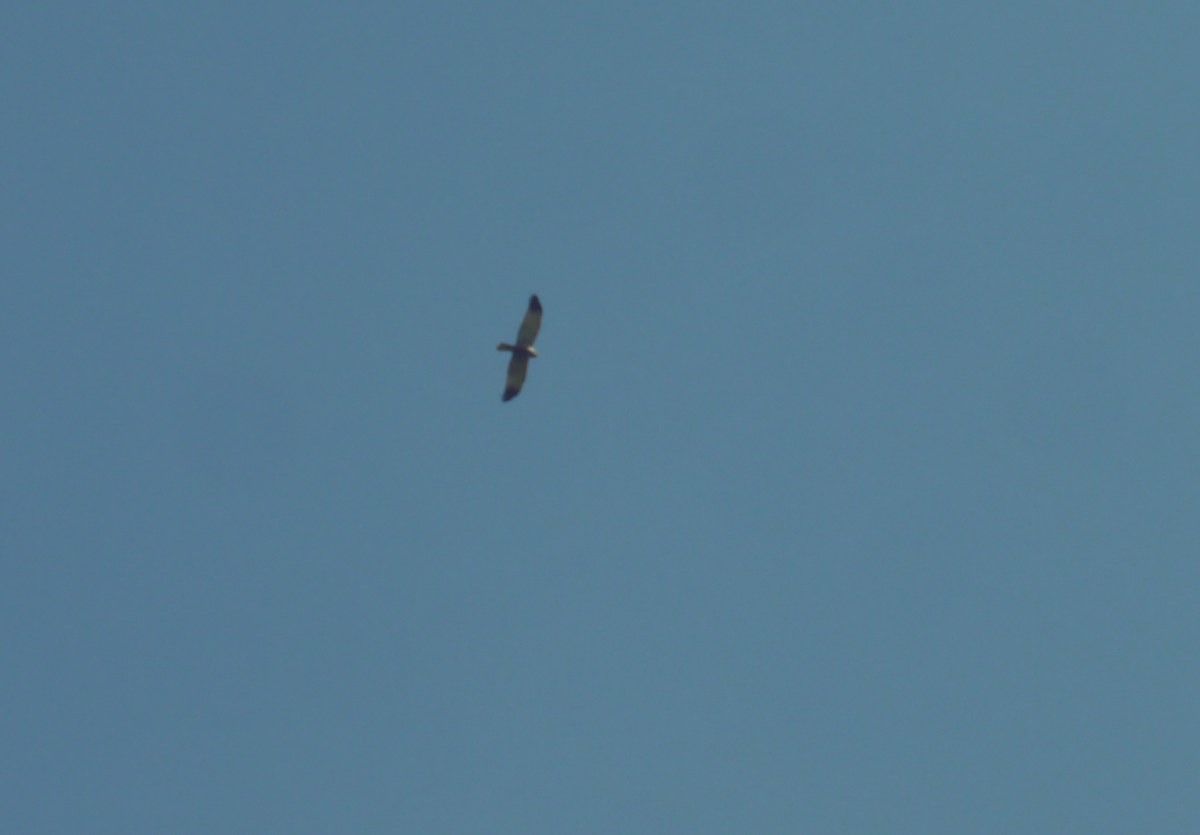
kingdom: Animalia
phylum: Chordata
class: Aves
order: Accipitriformes
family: Accipitridae
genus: Circus
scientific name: Circus aeruginosus
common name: Western marsh harrier
